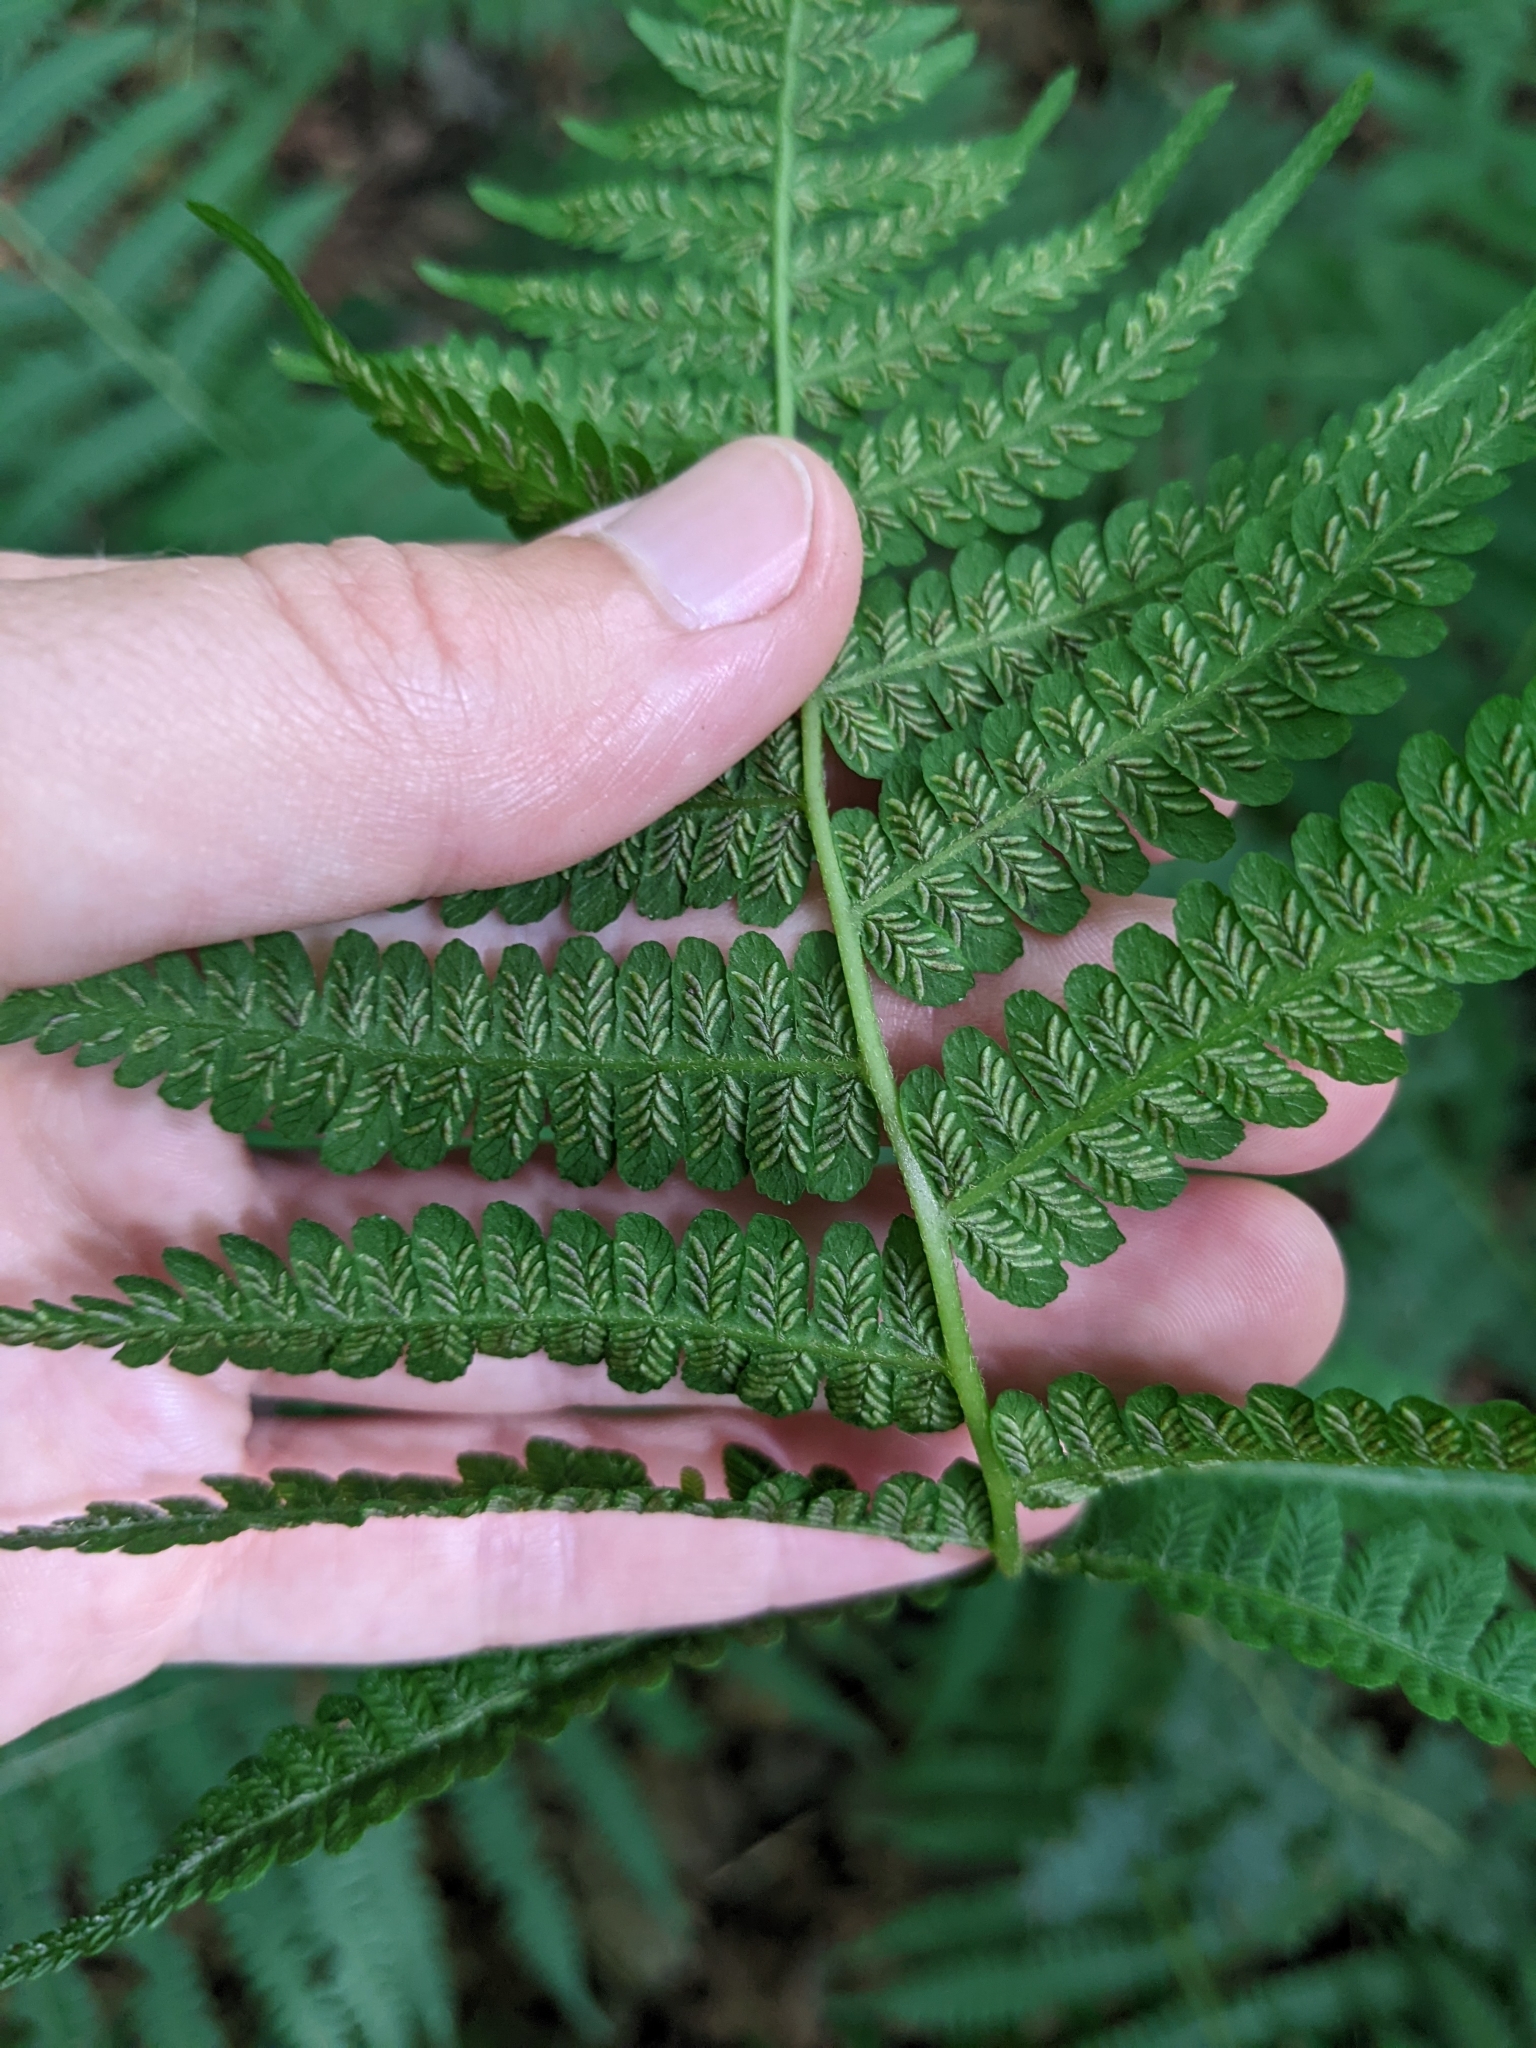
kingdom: Plantae
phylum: Tracheophyta
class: Polypodiopsida
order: Polypodiales
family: Athyriaceae
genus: Deparia
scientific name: Deparia acrostichoides
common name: Silver false spleenwort
